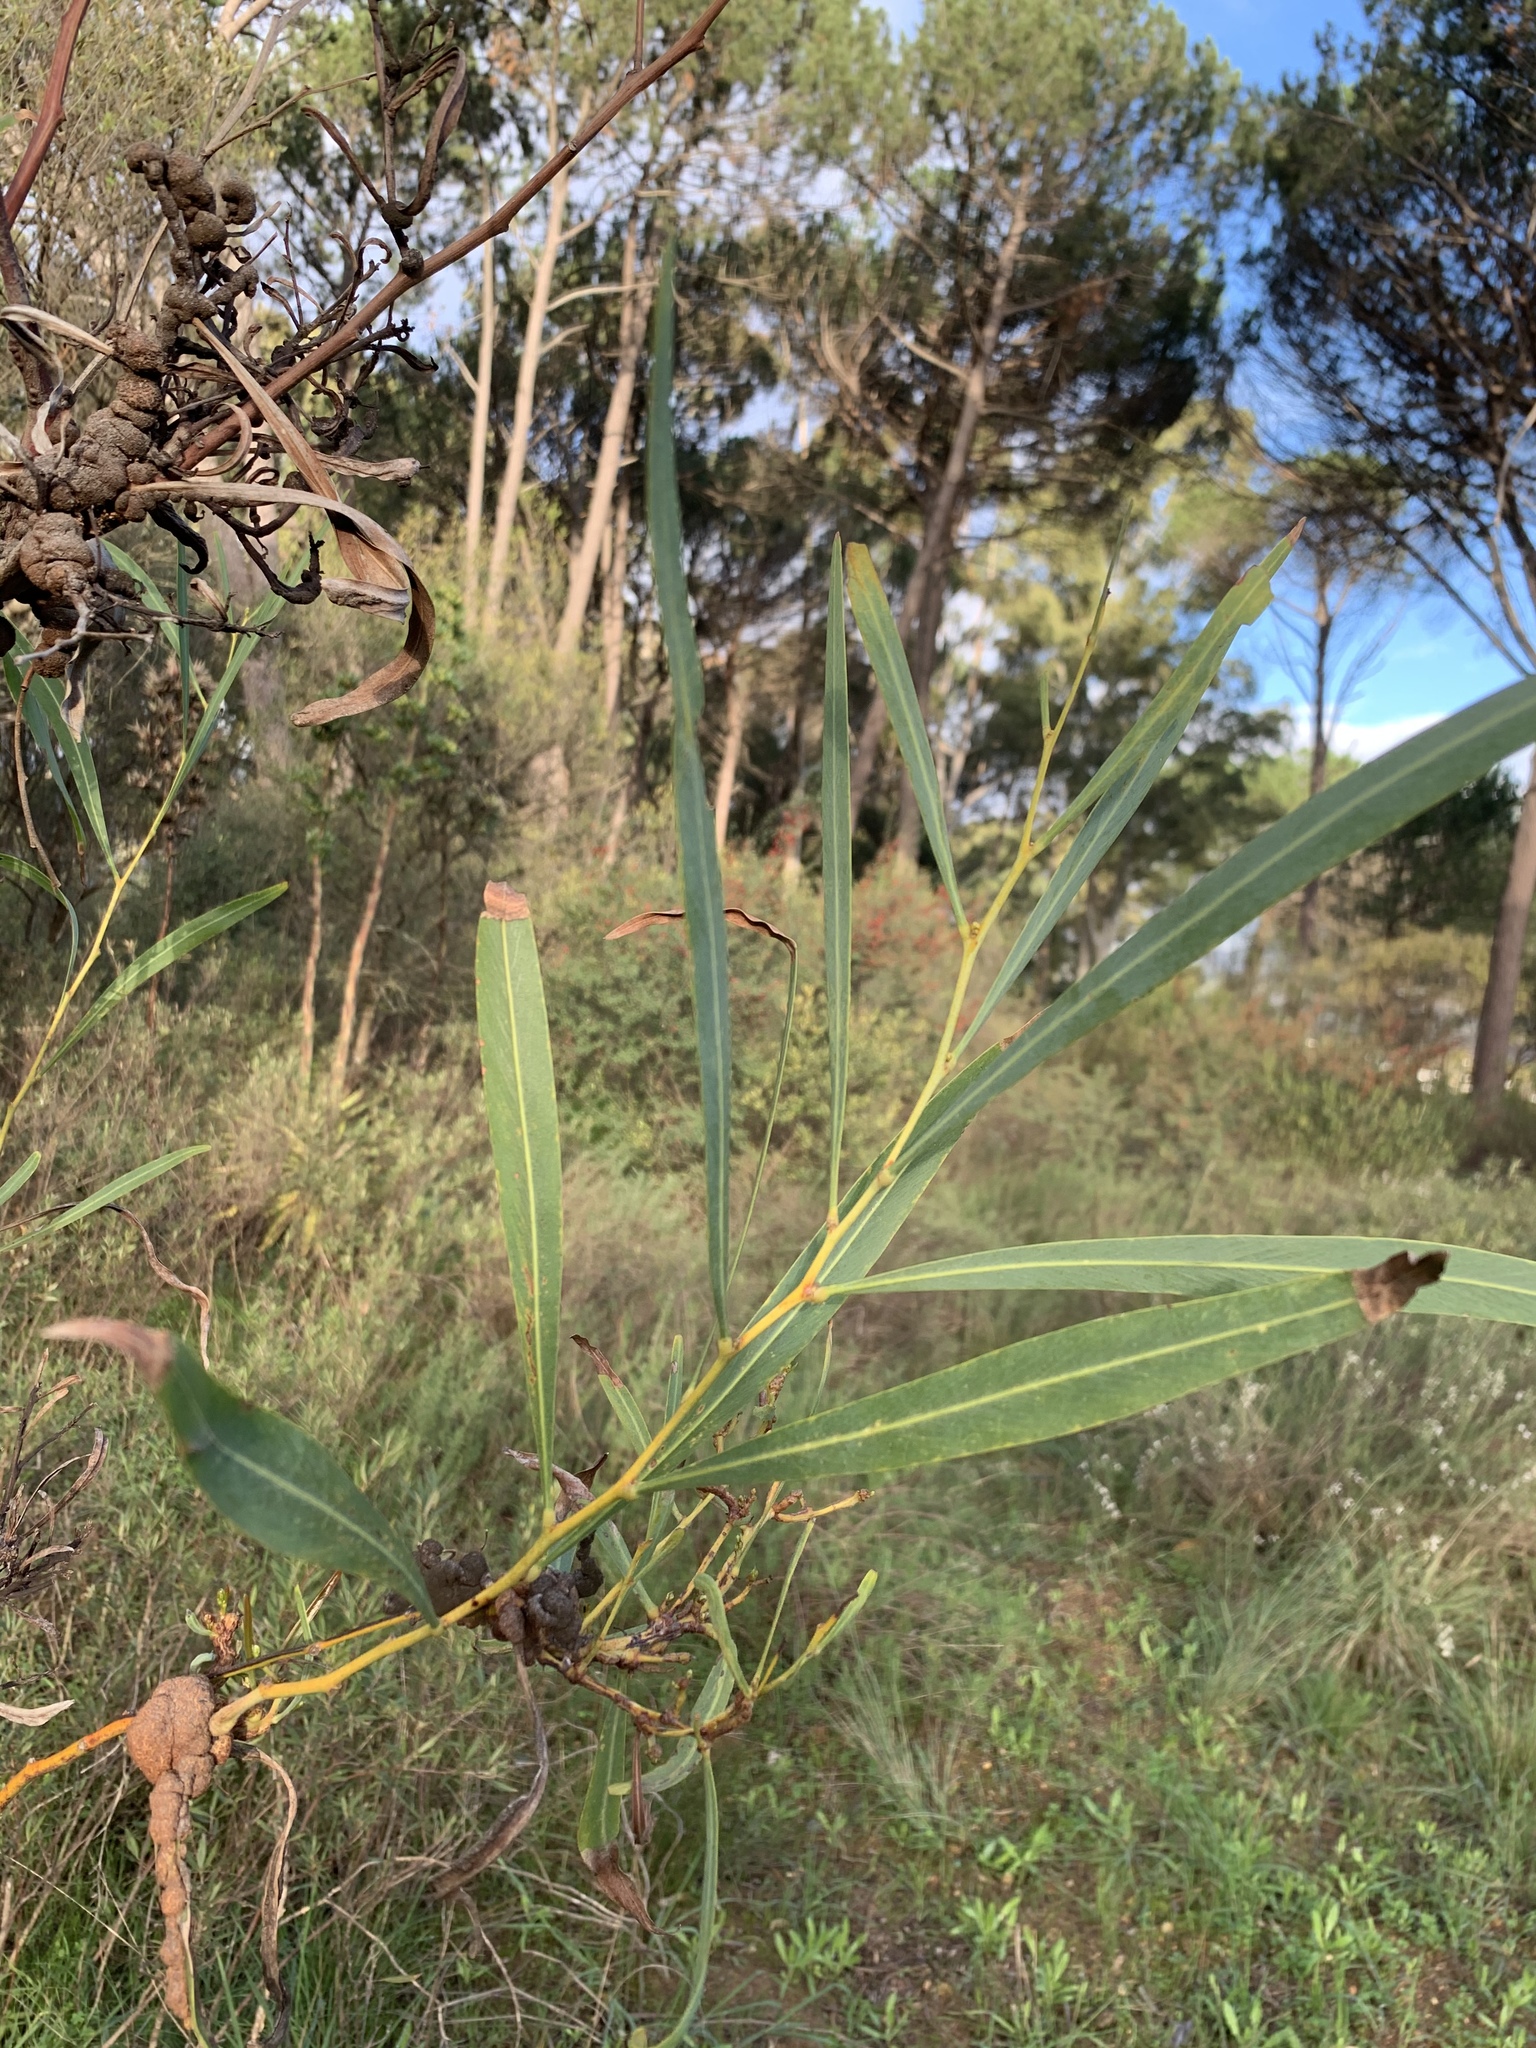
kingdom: Plantae
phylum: Tracheophyta
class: Magnoliopsida
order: Fabales
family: Fabaceae
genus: Acacia
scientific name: Acacia saligna
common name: Orange wattle
